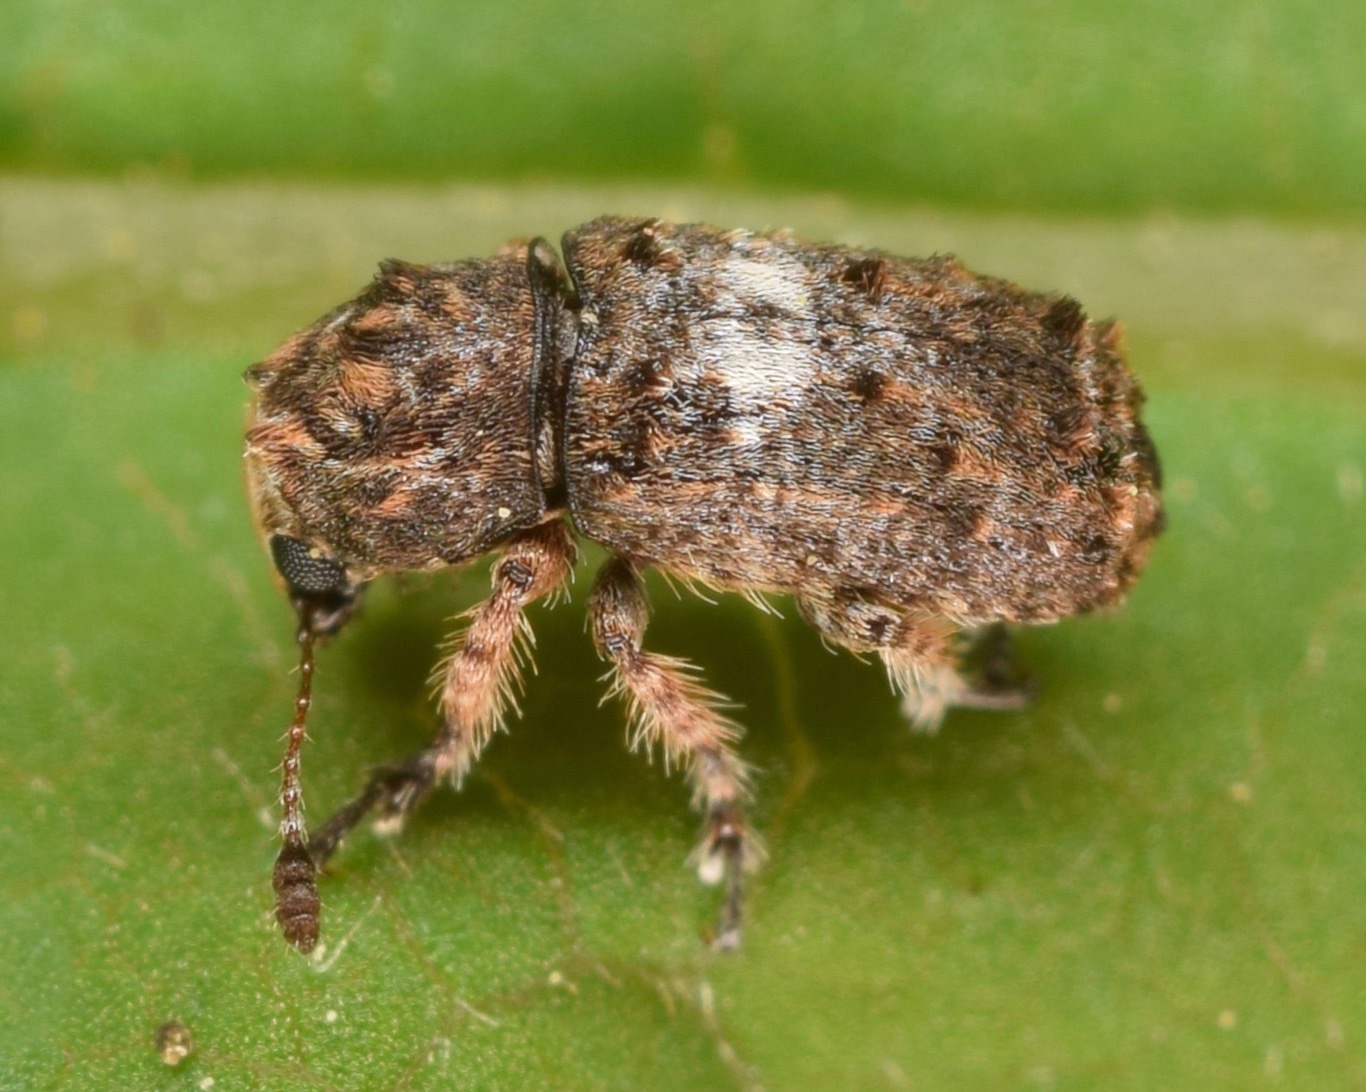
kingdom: Animalia
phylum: Arthropoda
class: Insecta
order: Coleoptera
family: Anthribidae
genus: Toxonotus
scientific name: Toxonotus cornutus
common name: Fungus weevil
